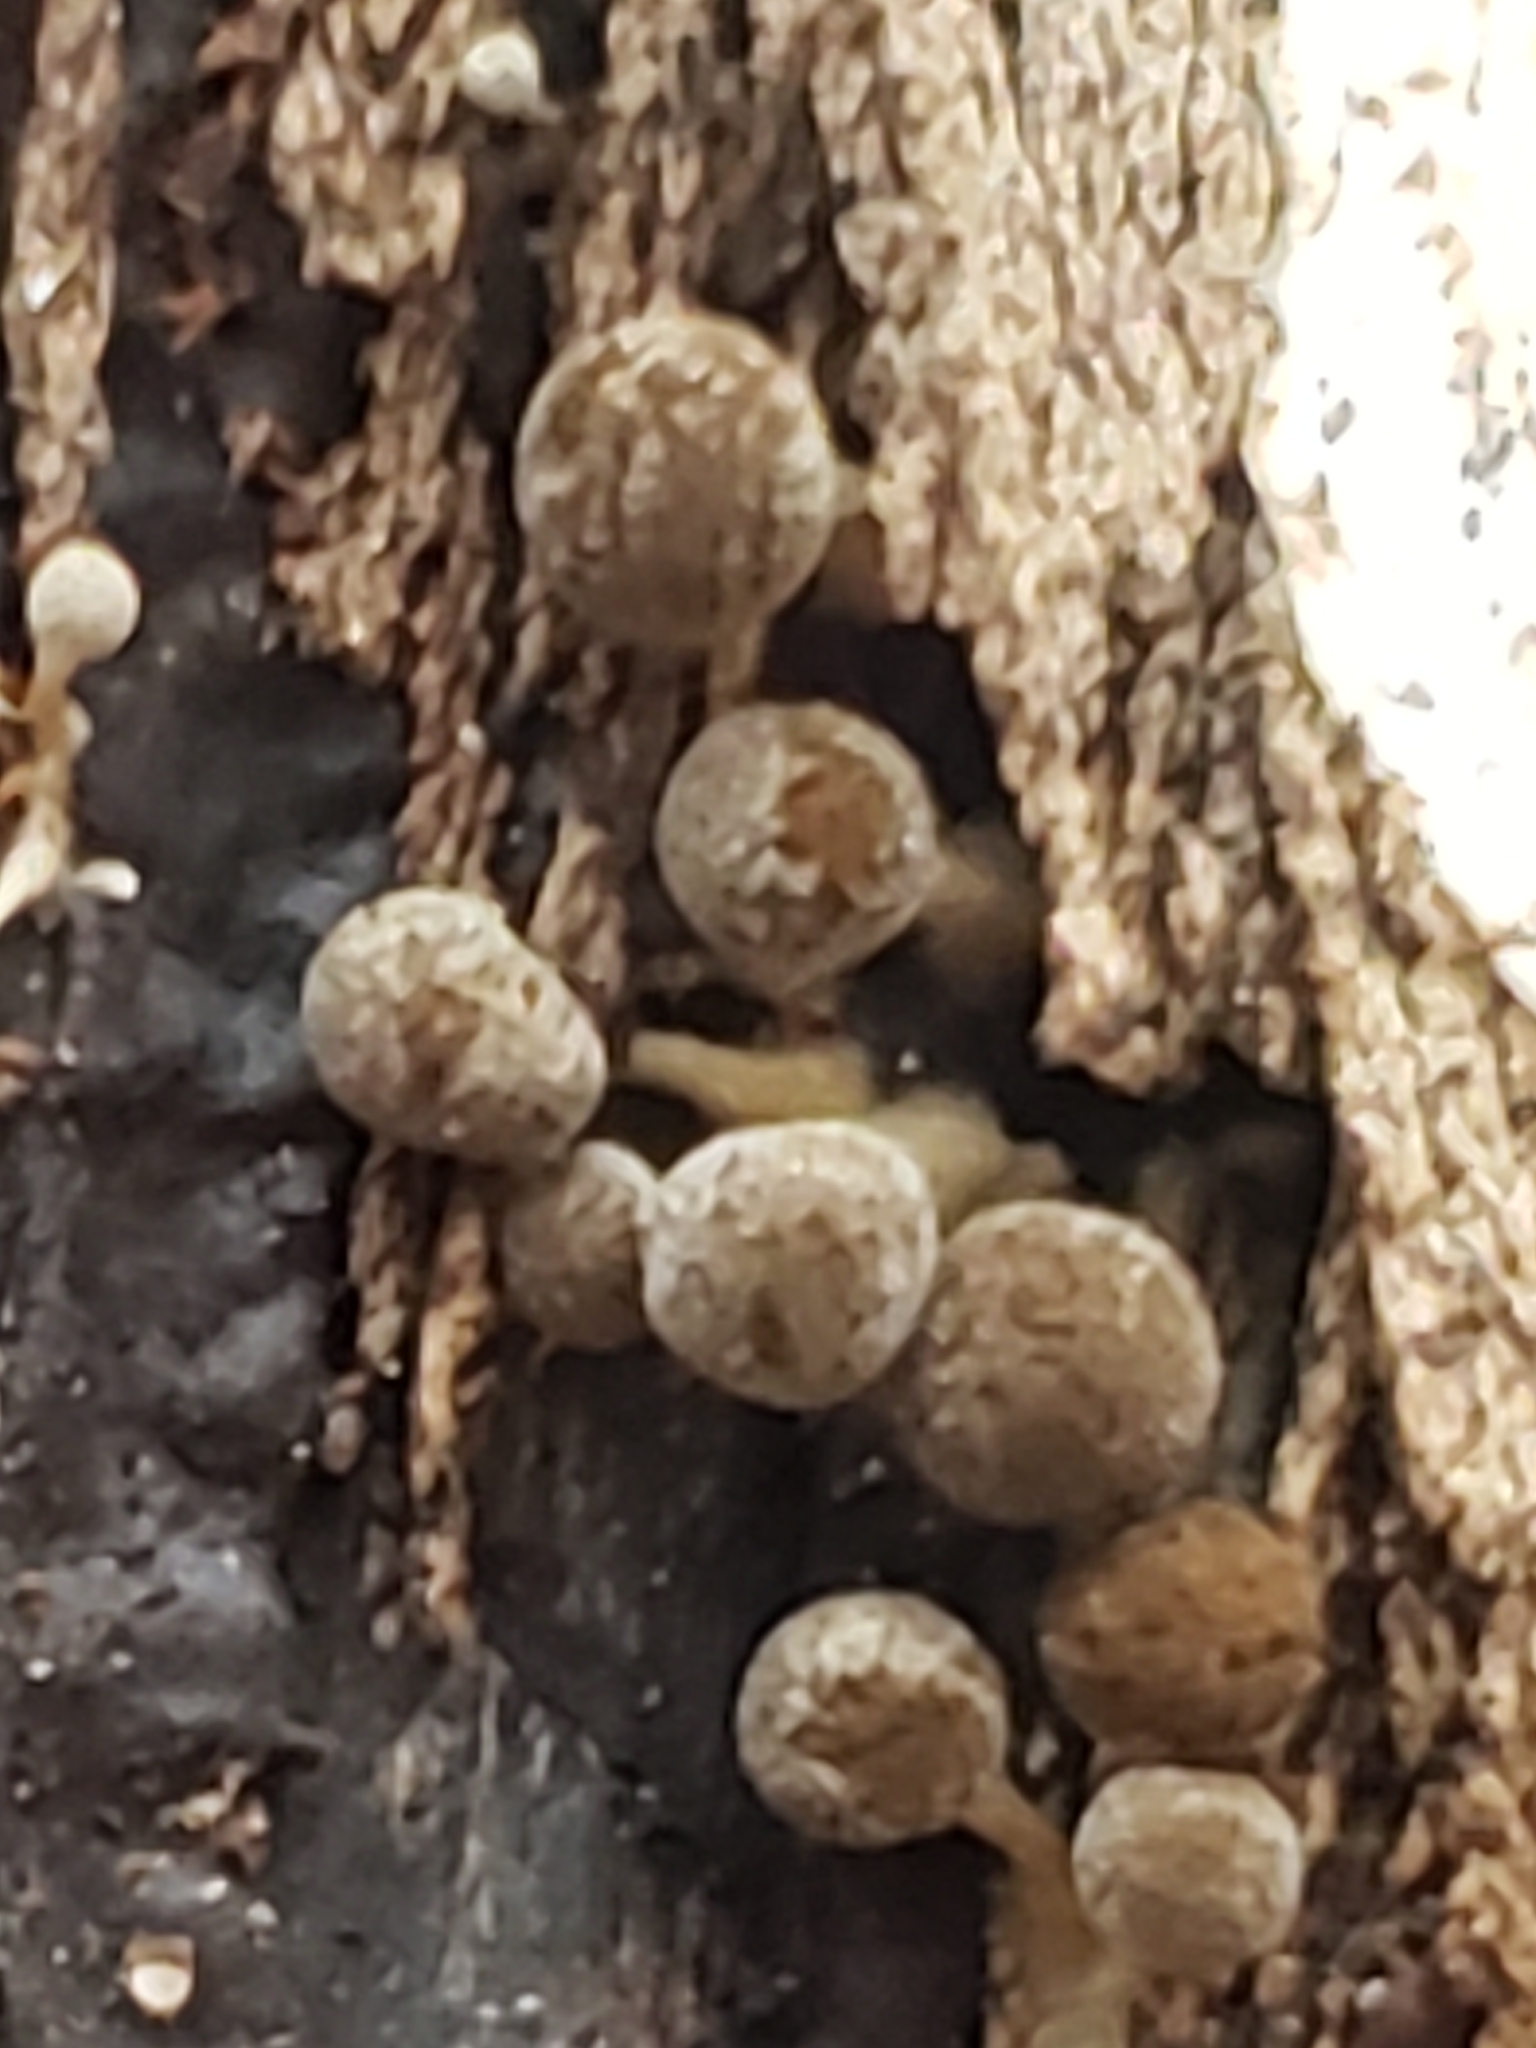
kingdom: Fungi
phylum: Basidiomycota
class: Atractiellomycetes
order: Atractiellales
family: Phleogenaceae
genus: Phleogena
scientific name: Phleogena faginea
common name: Fenugreek stalkball
